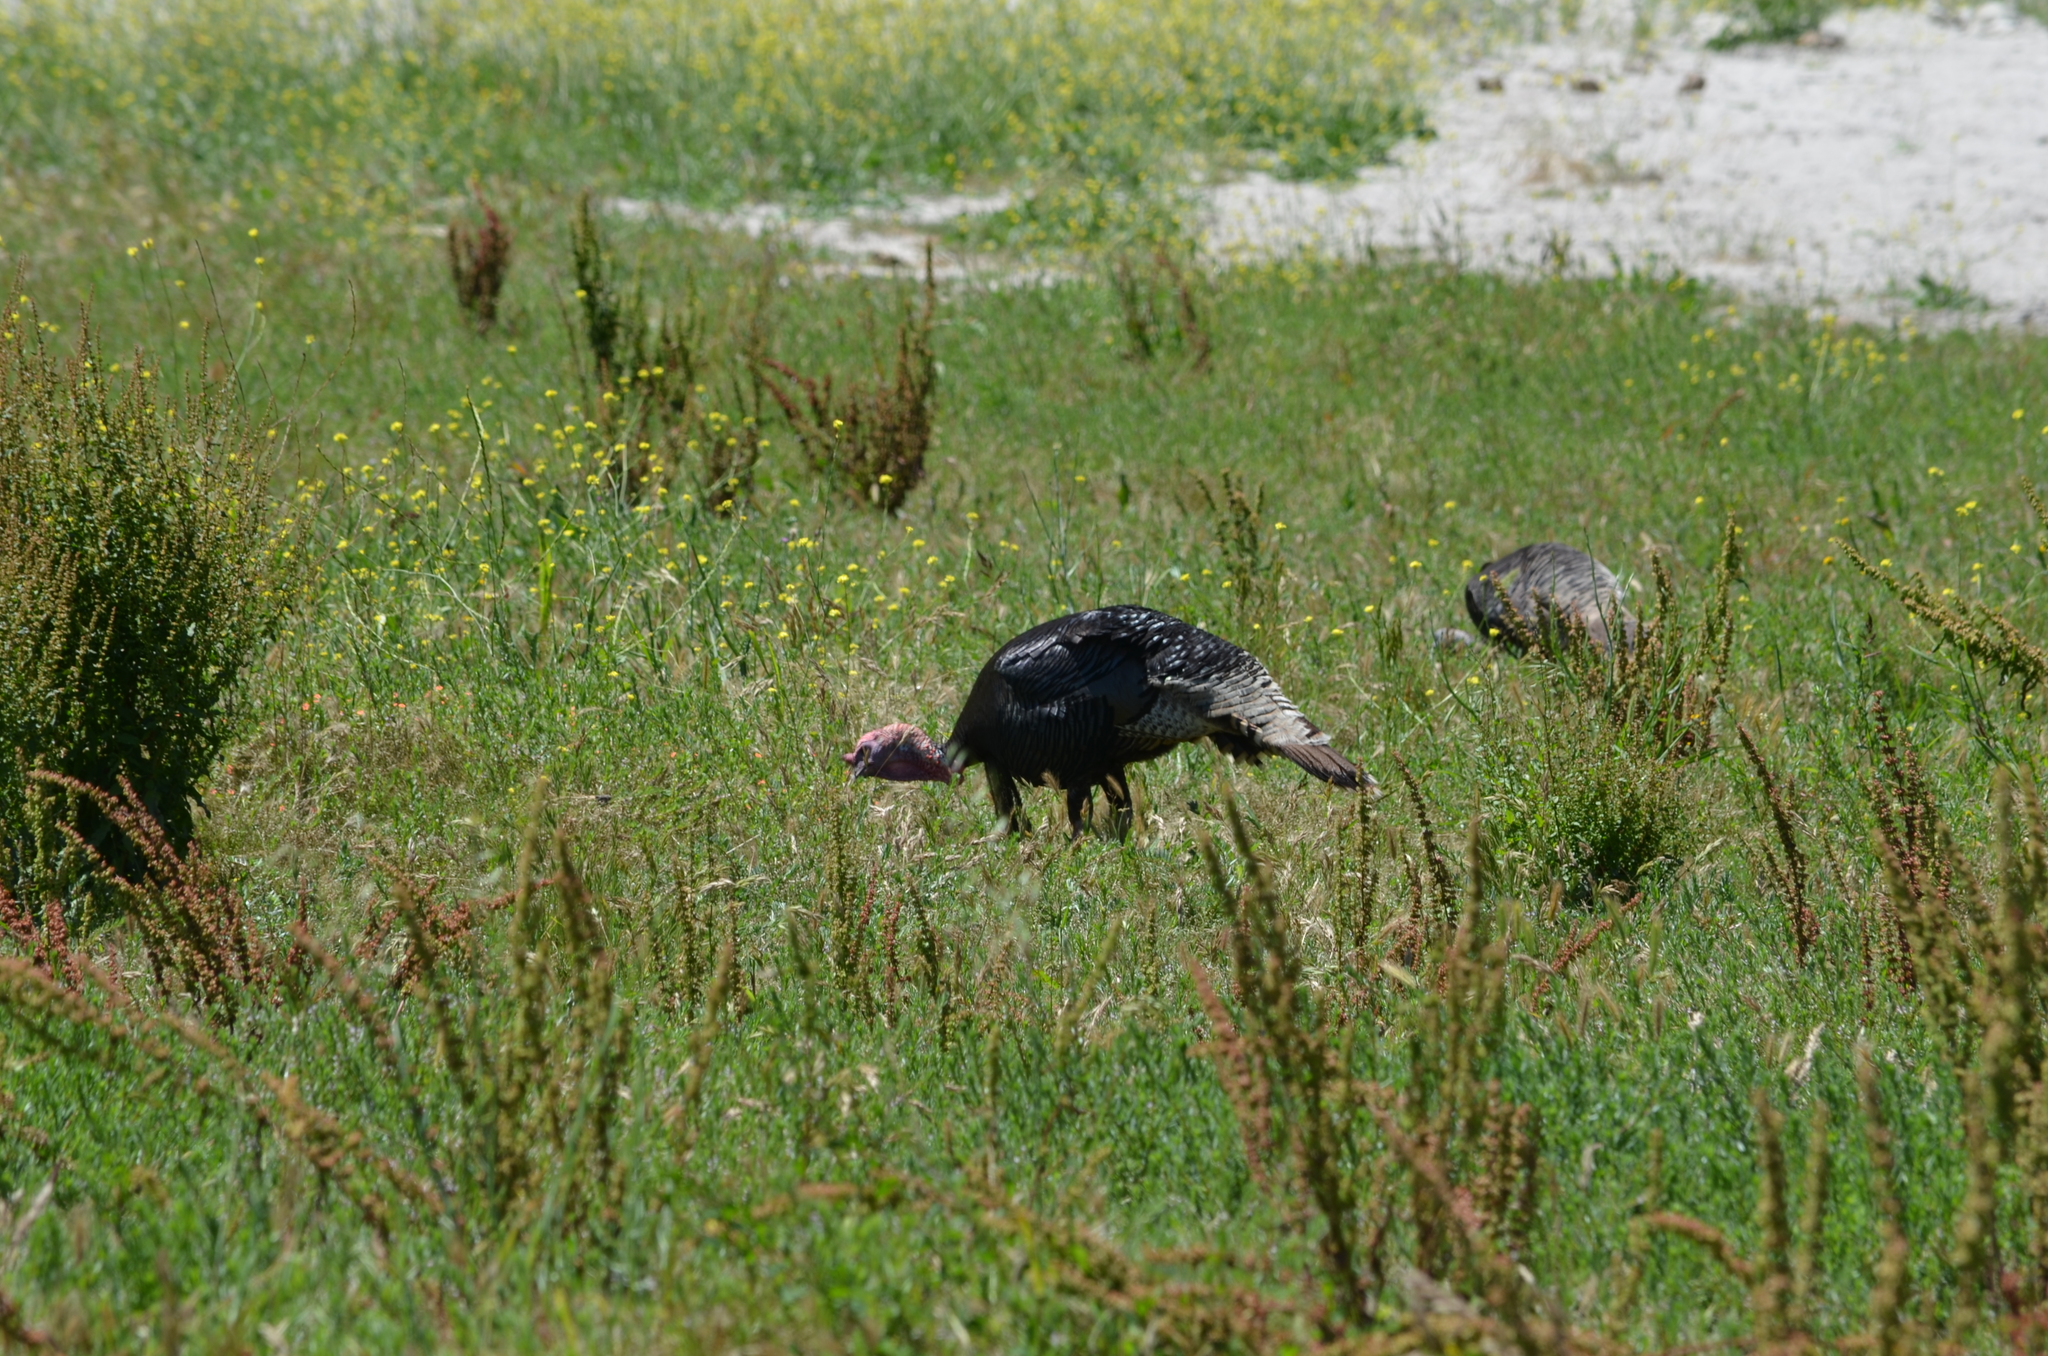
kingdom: Animalia
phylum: Chordata
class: Aves
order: Galliformes
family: Phasianidae
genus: Meleagris
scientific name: Meleagris gallopavo
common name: Wild turkey
